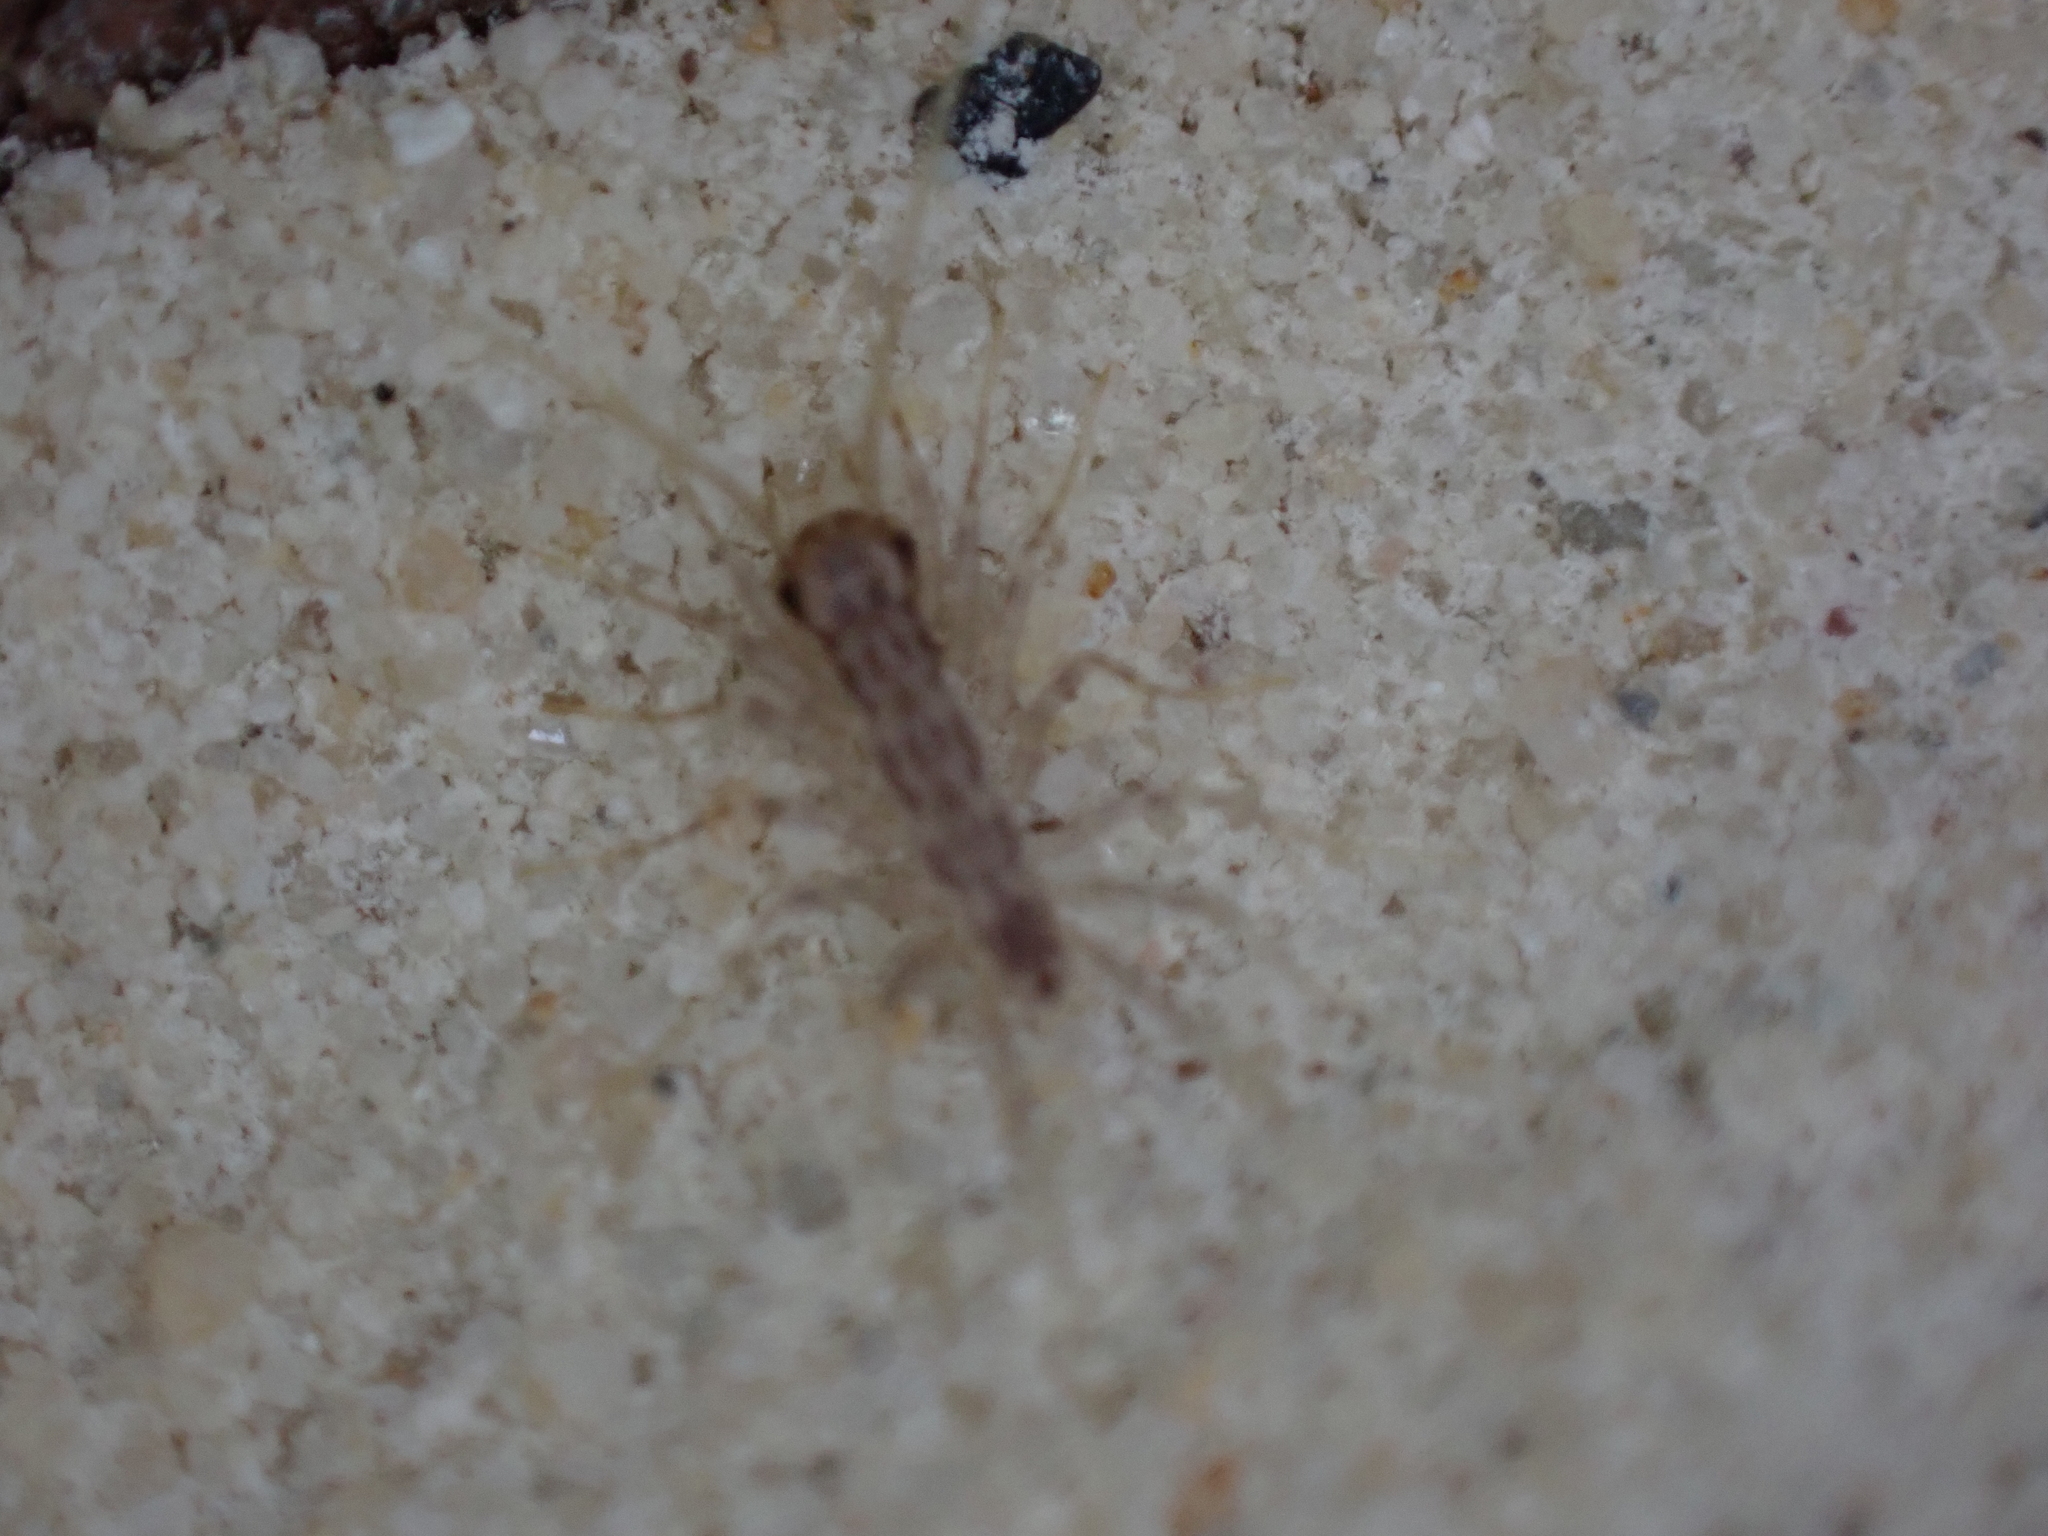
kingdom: Animalia
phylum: Arthropoda
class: Chilopoda
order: Scutigeromorpha
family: Scutigeridae
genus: Scutigera
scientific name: Scutigera coleoptrata
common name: House centipede
